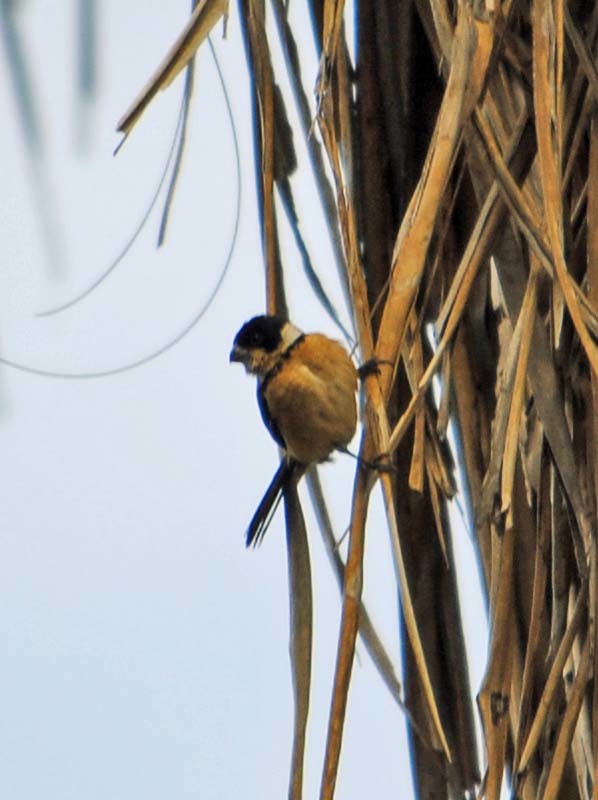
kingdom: Animalia
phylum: Chordata
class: Aves
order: Passeriformes
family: Thraupidae
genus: Sporophila
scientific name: Sporophila torqueola
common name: White-collared seedeater
